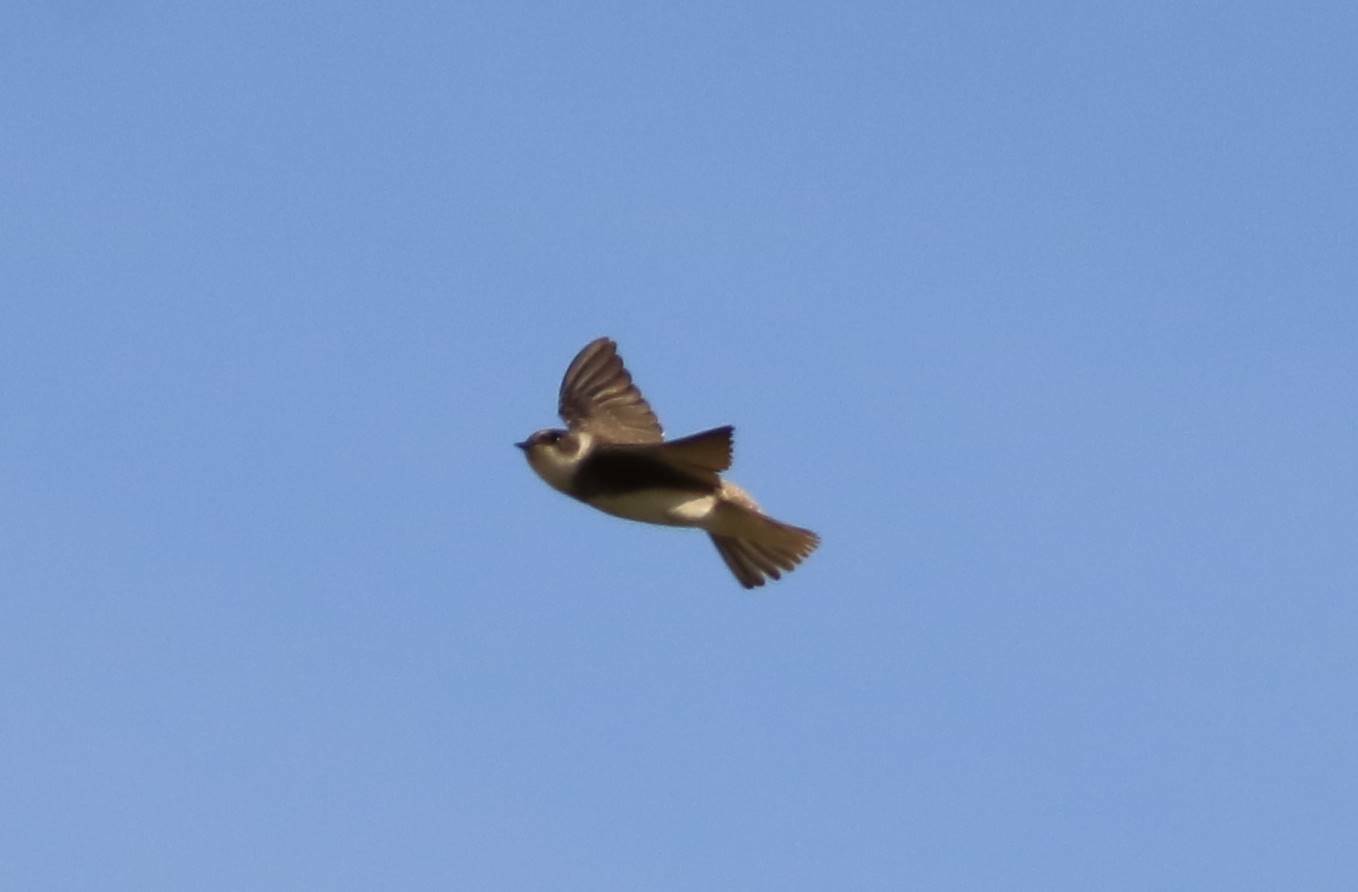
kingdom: Animalia
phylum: Chordata
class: Aves
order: Passeriformes
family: Hirundinidae
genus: Riparia
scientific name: Riparia riparia
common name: Sand martin
